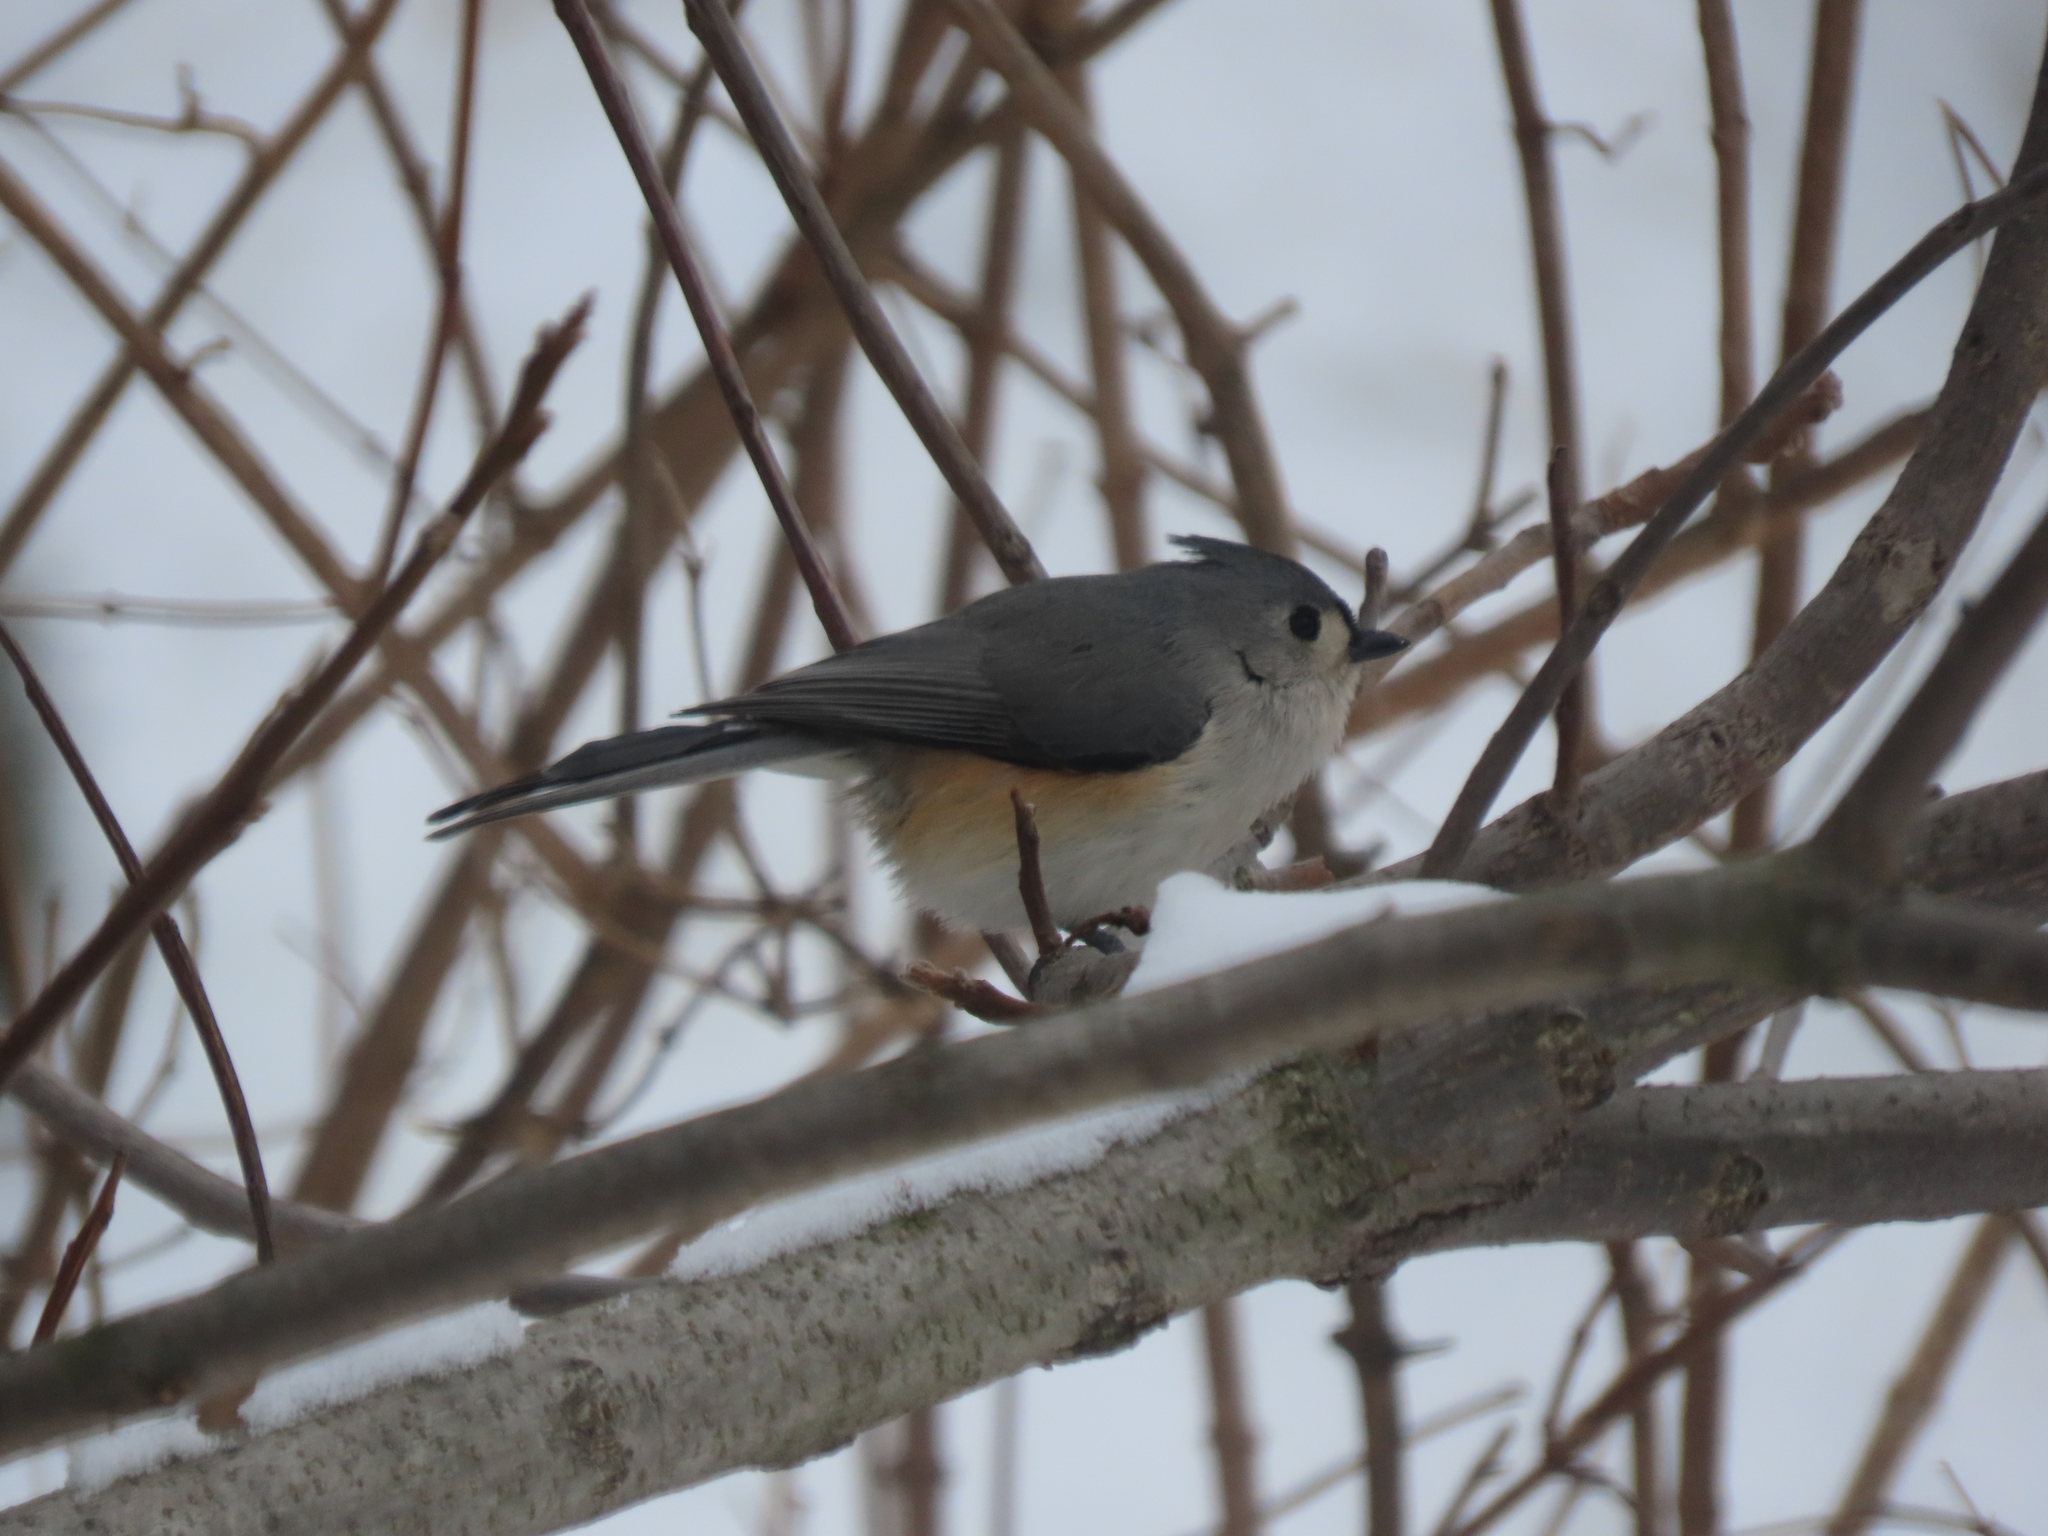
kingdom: Animalia
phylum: Chordata
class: Aves
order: Passeriformes
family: Paridae
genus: Baeolophus
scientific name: Baeolophus bicolor
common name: Tufted titmouse
